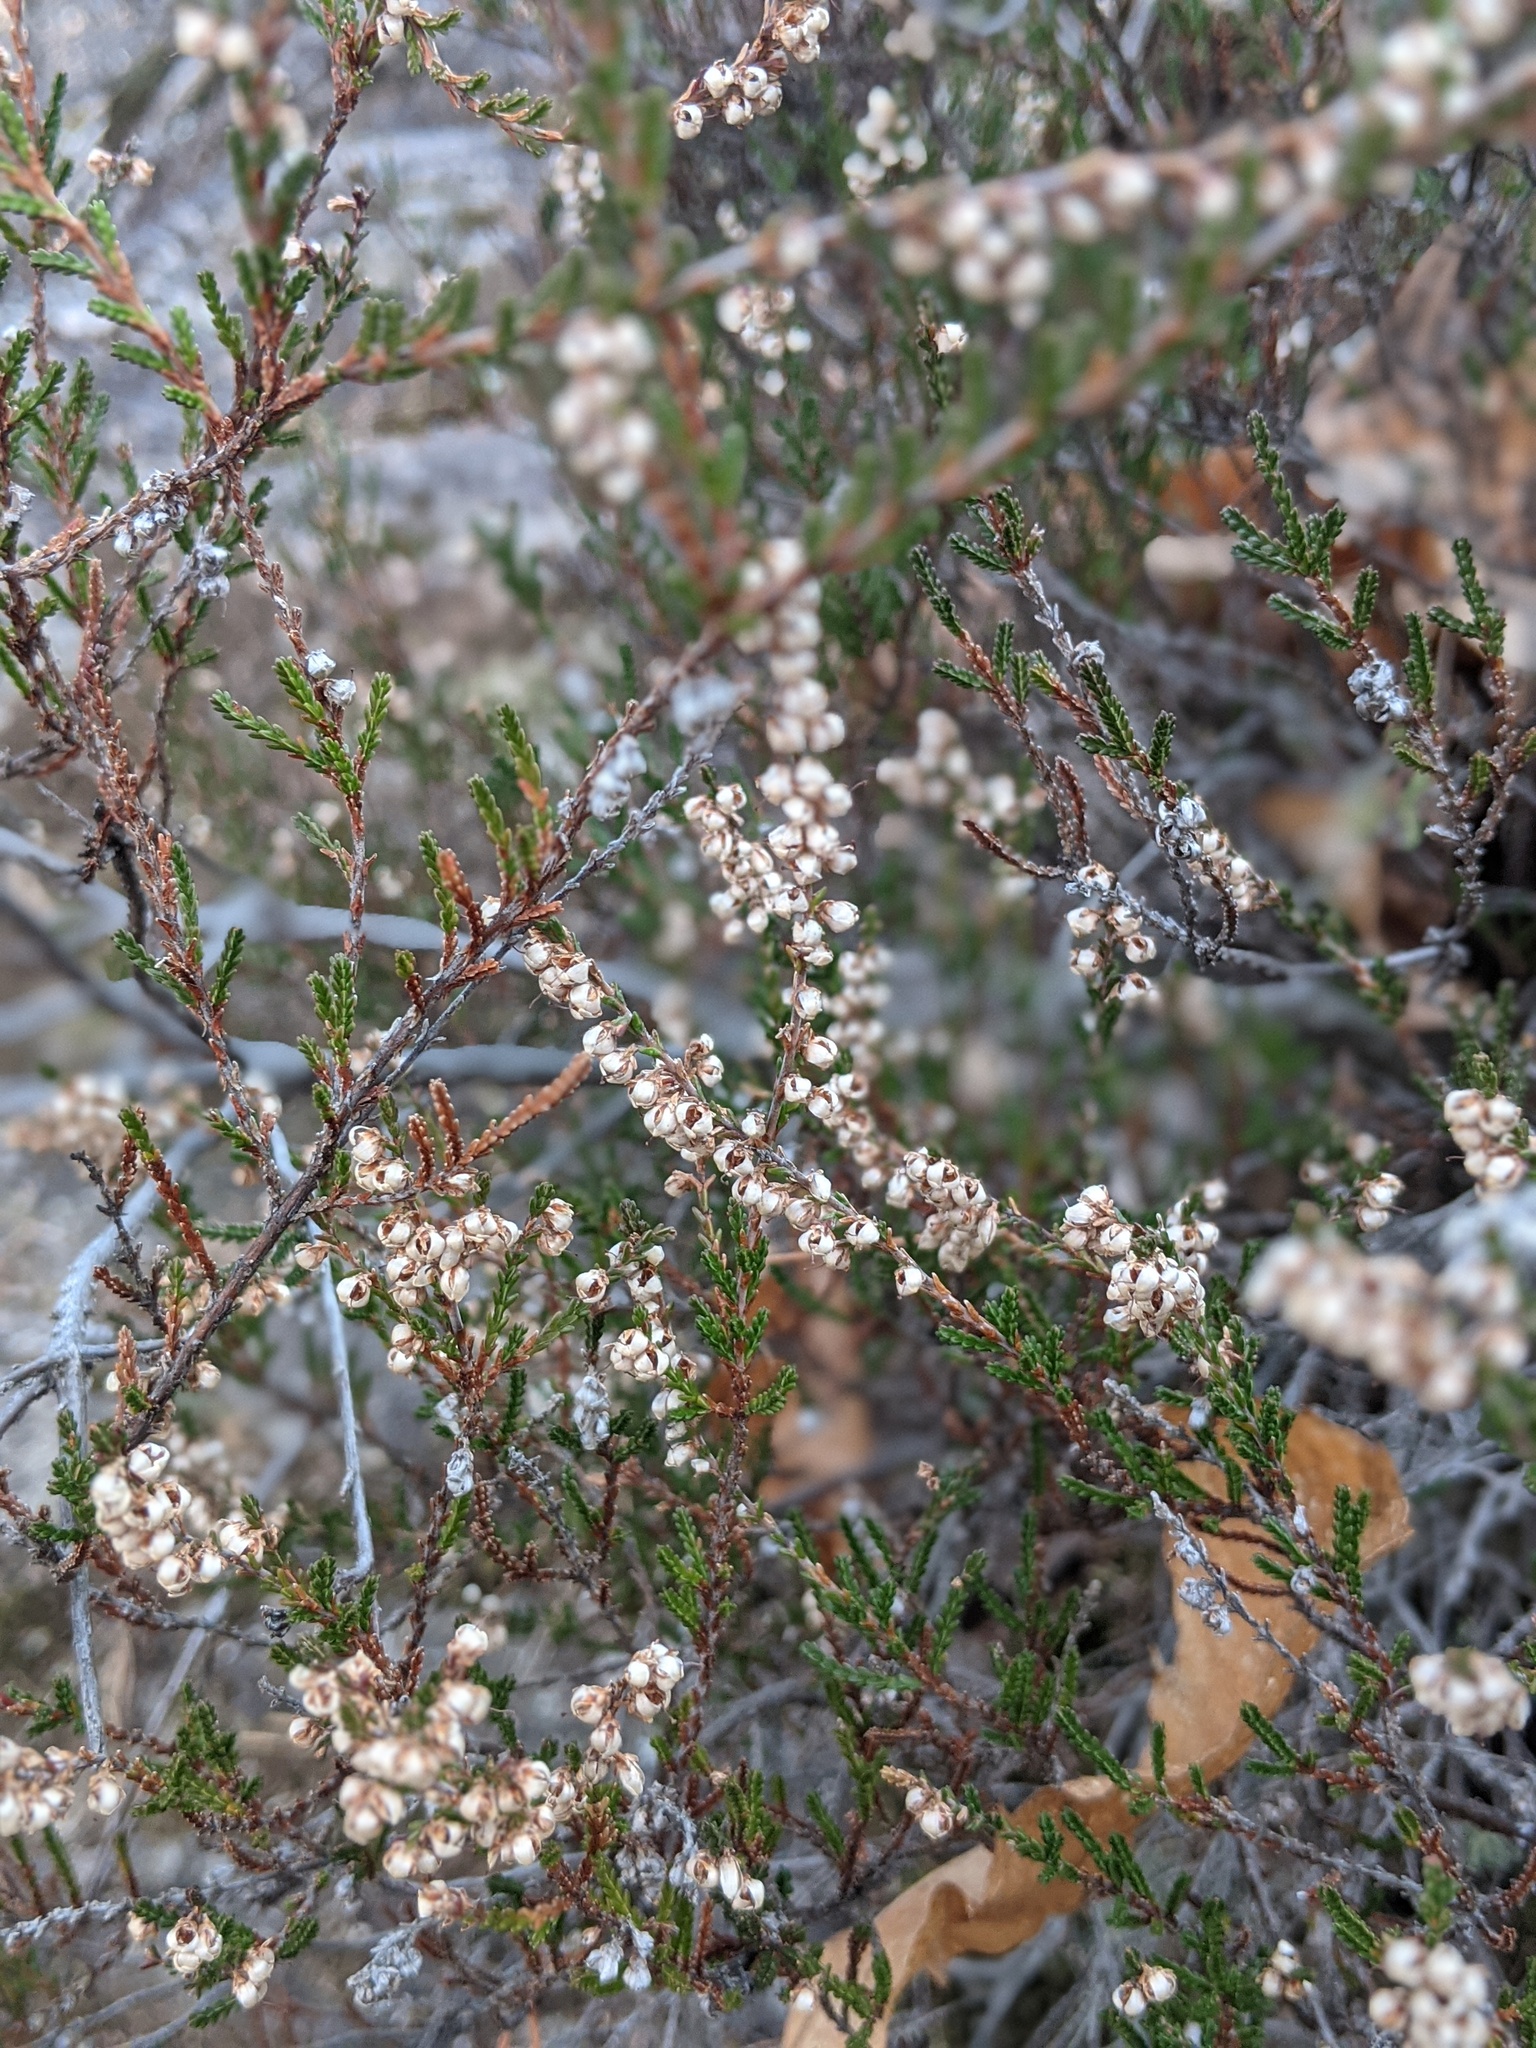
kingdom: Plantae
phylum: Tracheophyta
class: Magnoliopsida
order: Ericales
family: Ericaceae
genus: Calluna
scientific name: Calluna vulgaris
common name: Heather
